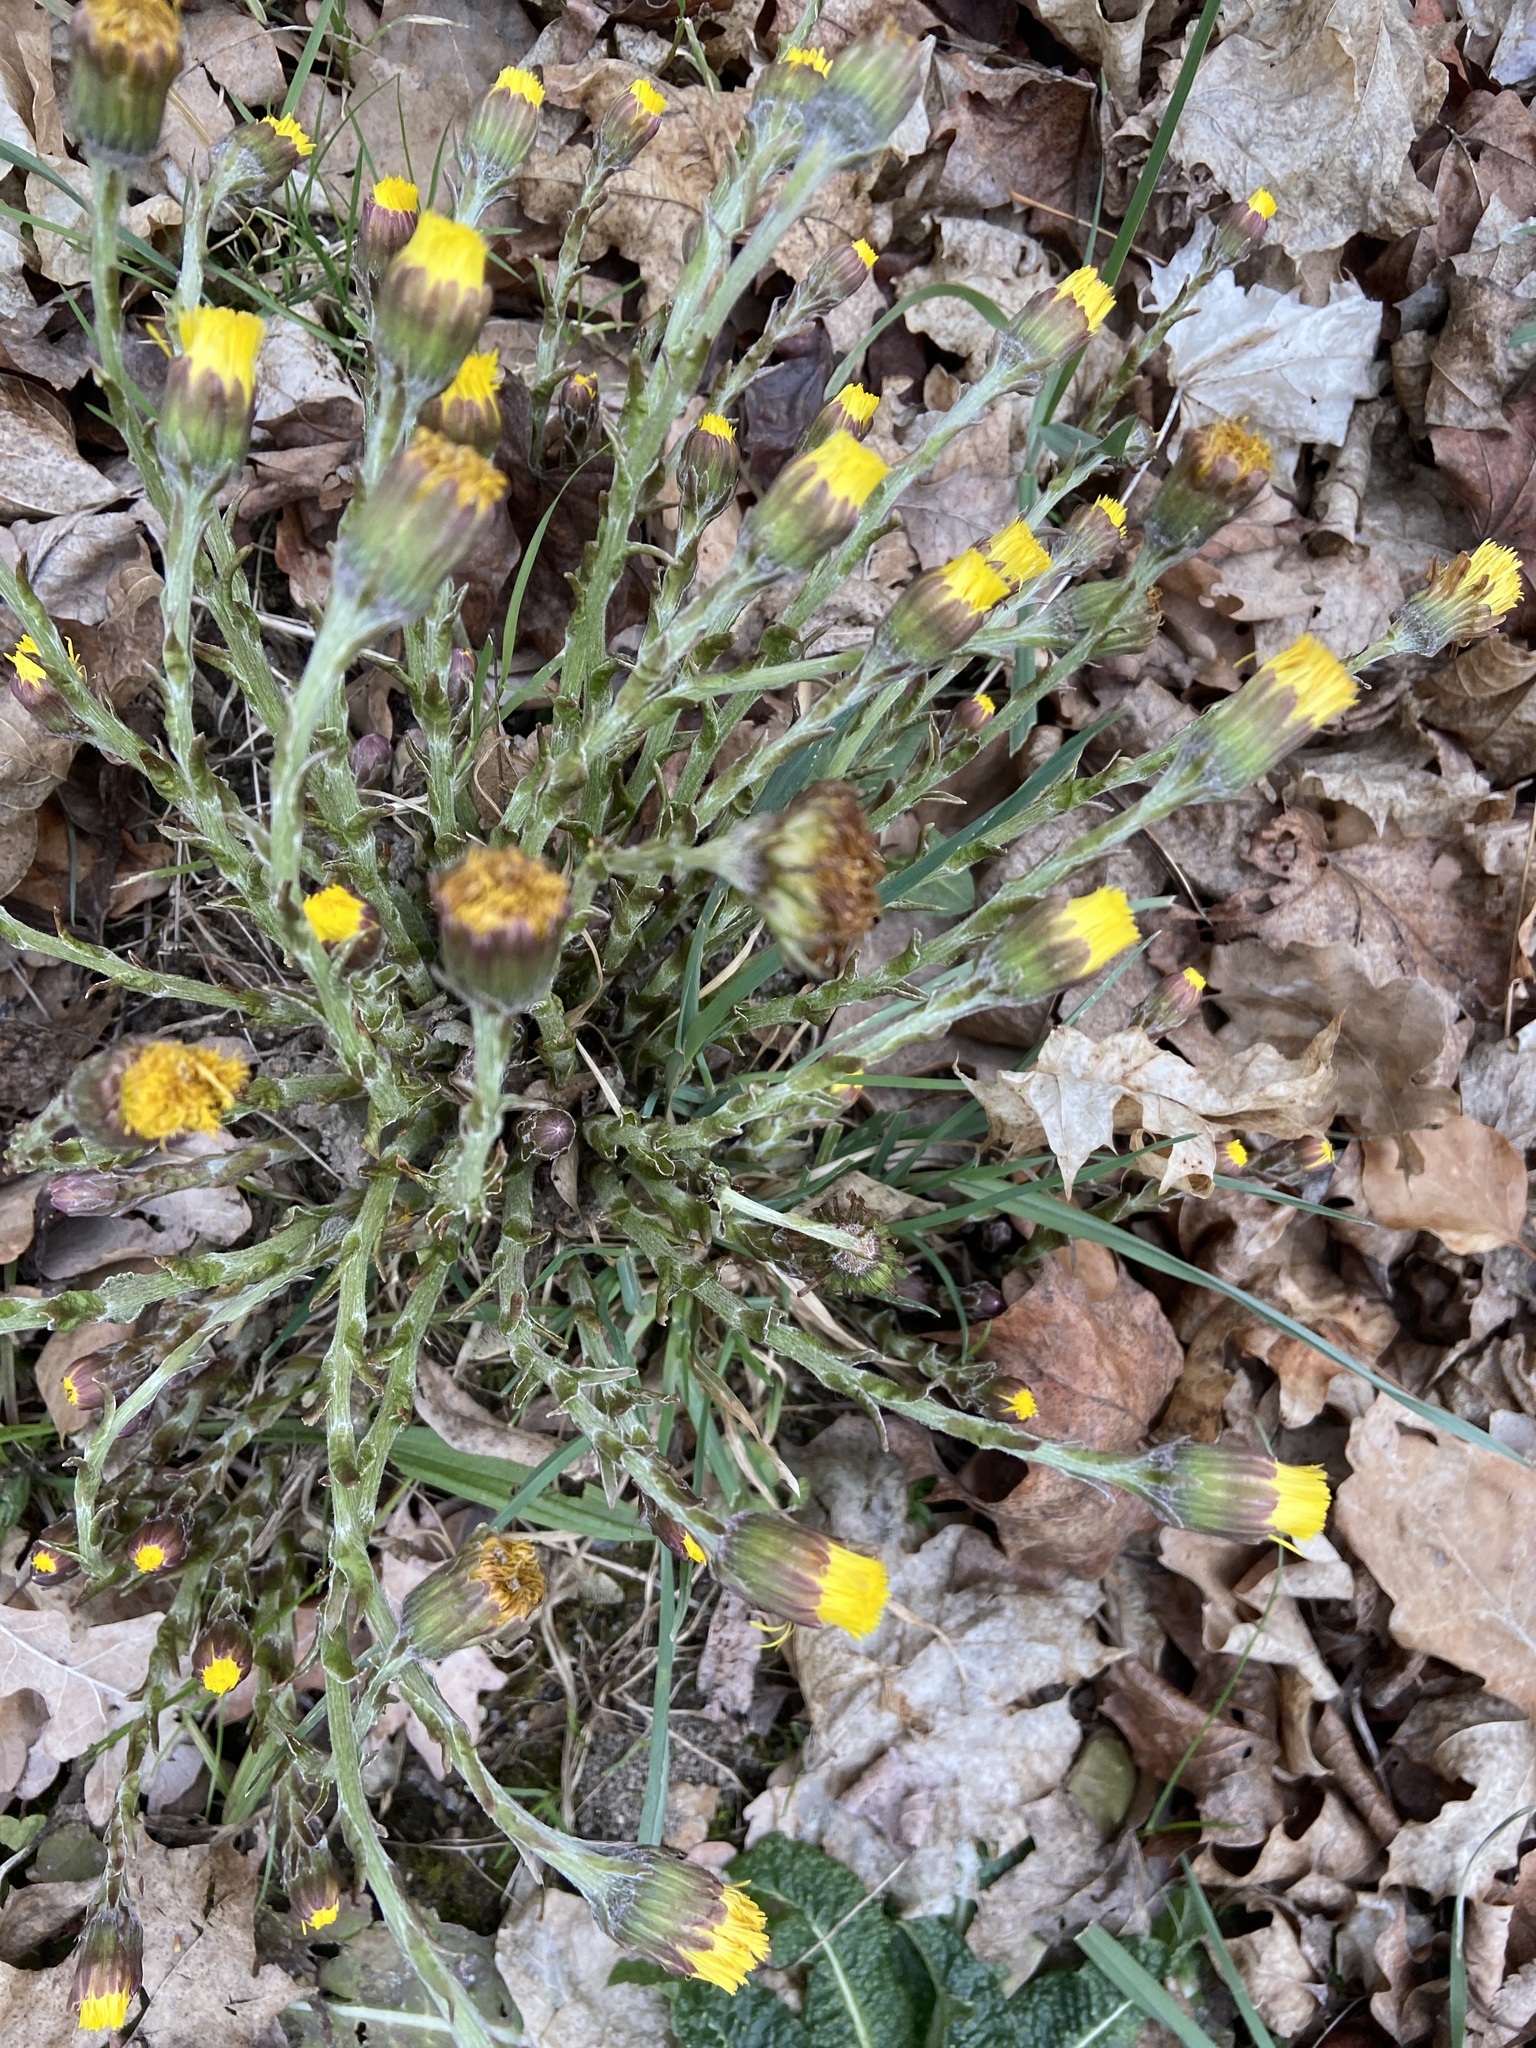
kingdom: Plantae
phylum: Tracheophyta
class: Magnoliopsida
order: Asterales
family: Asteraceae
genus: Tussilago
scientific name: Tussilago farfara
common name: Coltsfoot
